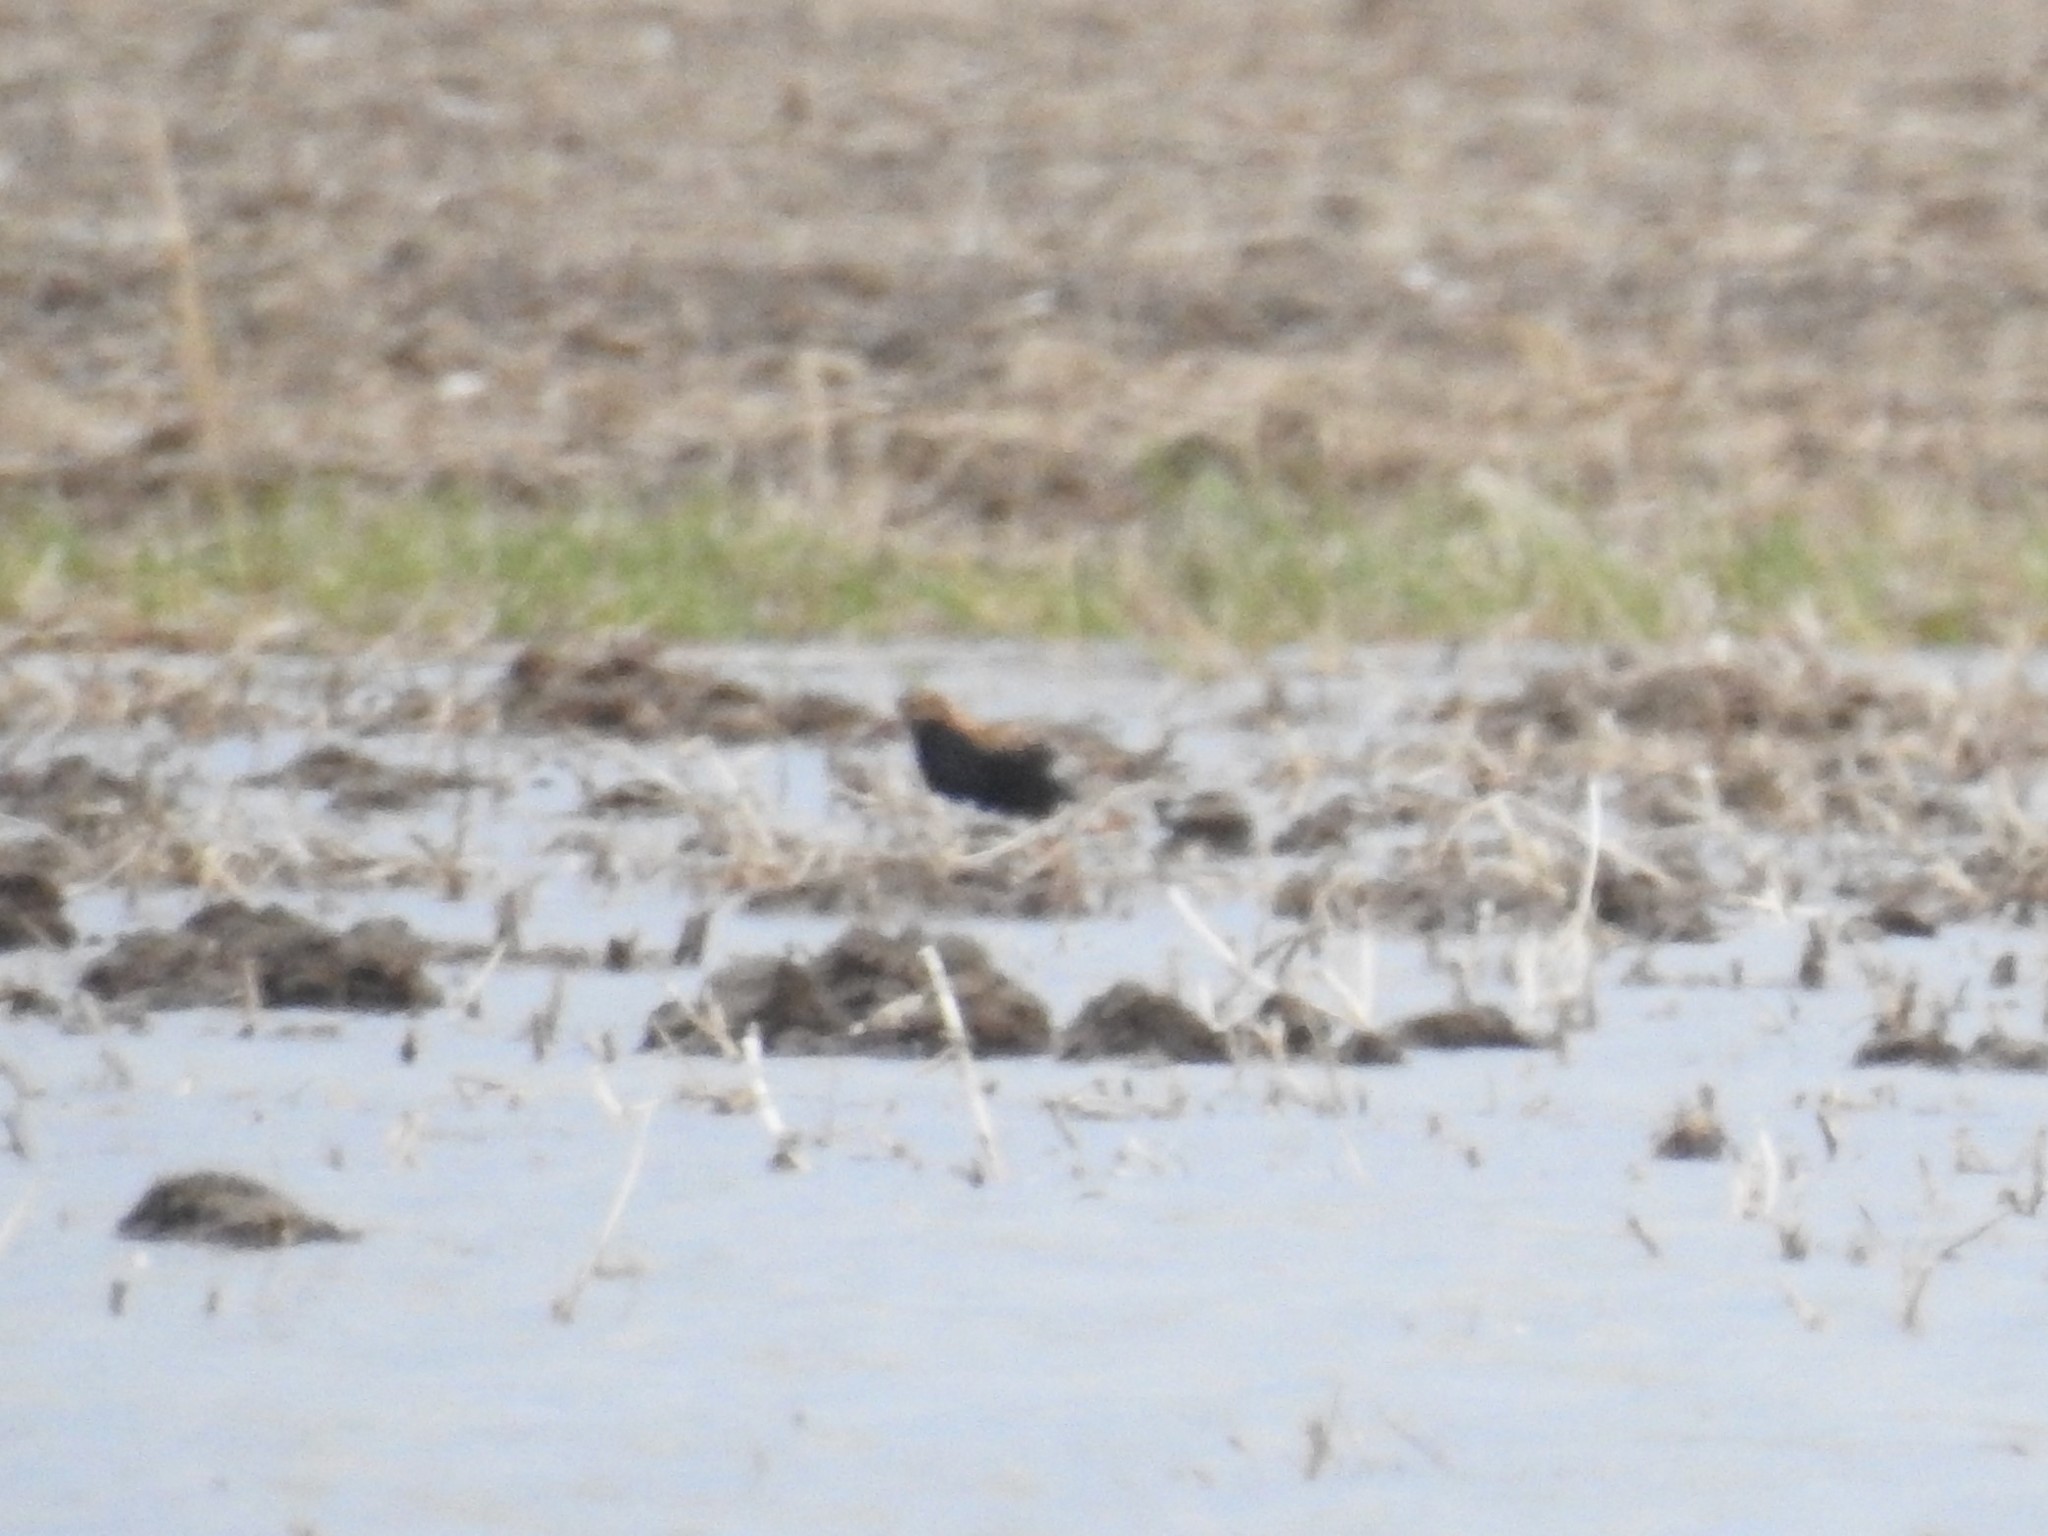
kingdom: Animalia
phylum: Chordata
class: Aves
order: Charadriiformes
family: Scolopacidae
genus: Calidris
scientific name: Calidris pugnax
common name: Ruff
